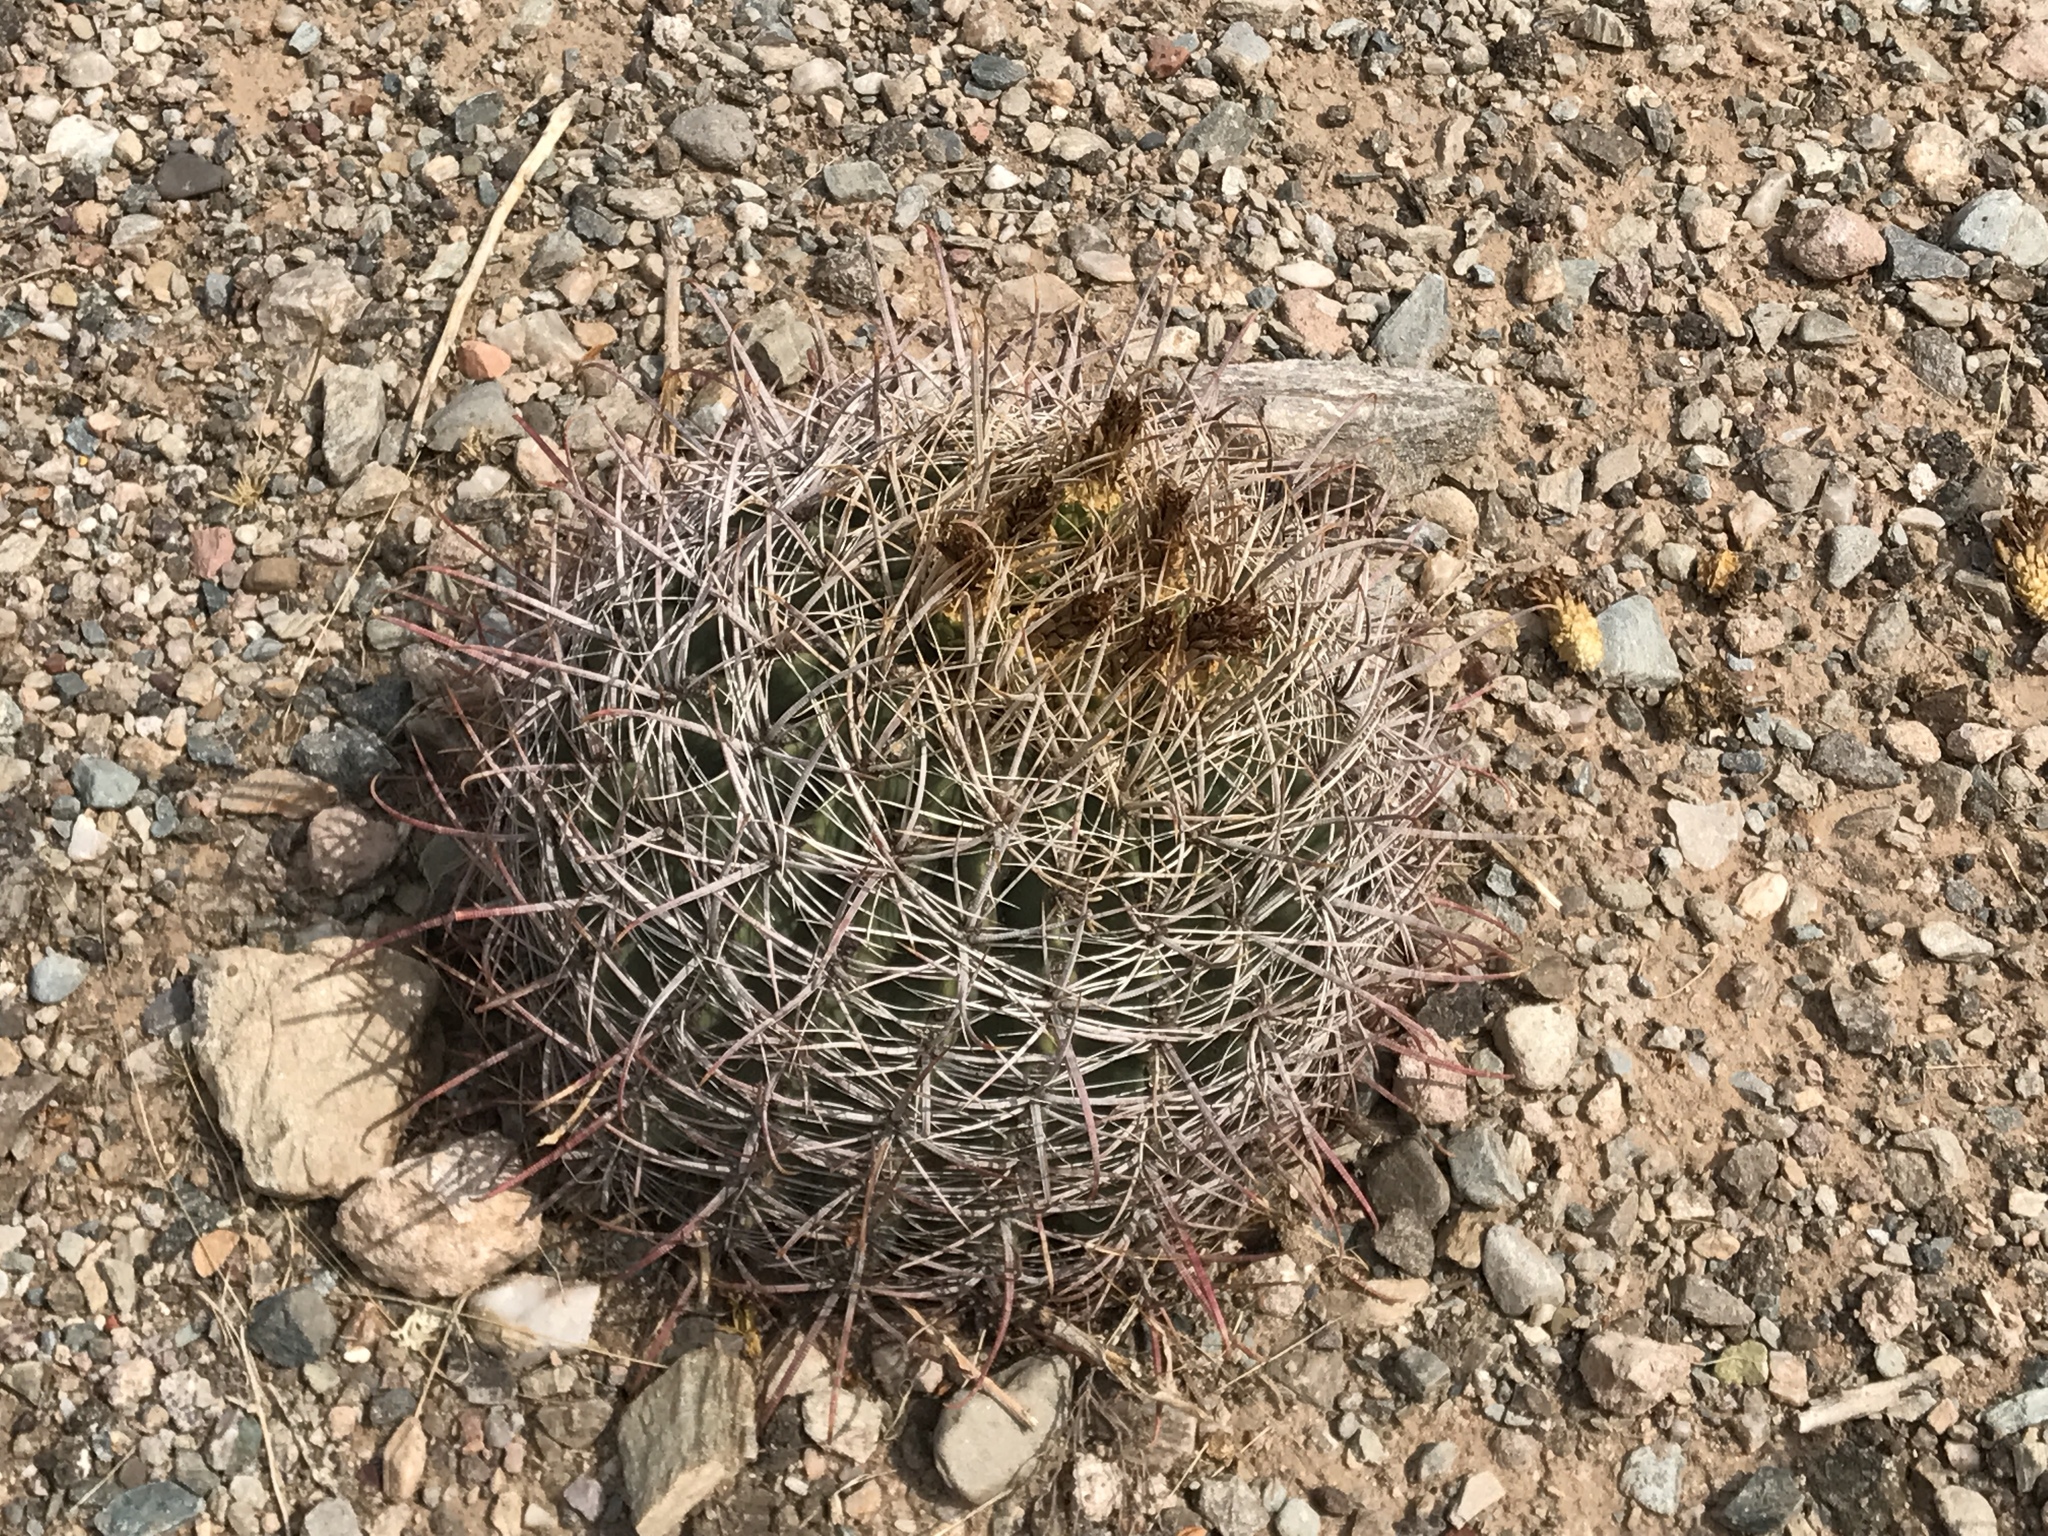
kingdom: Plantae
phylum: Tracheophyta
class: Magnoliopsida
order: Caryophyllales
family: Cactaceae
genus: Ferocactus
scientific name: Ferocactus wislizeni
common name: Candy barrel cactus
